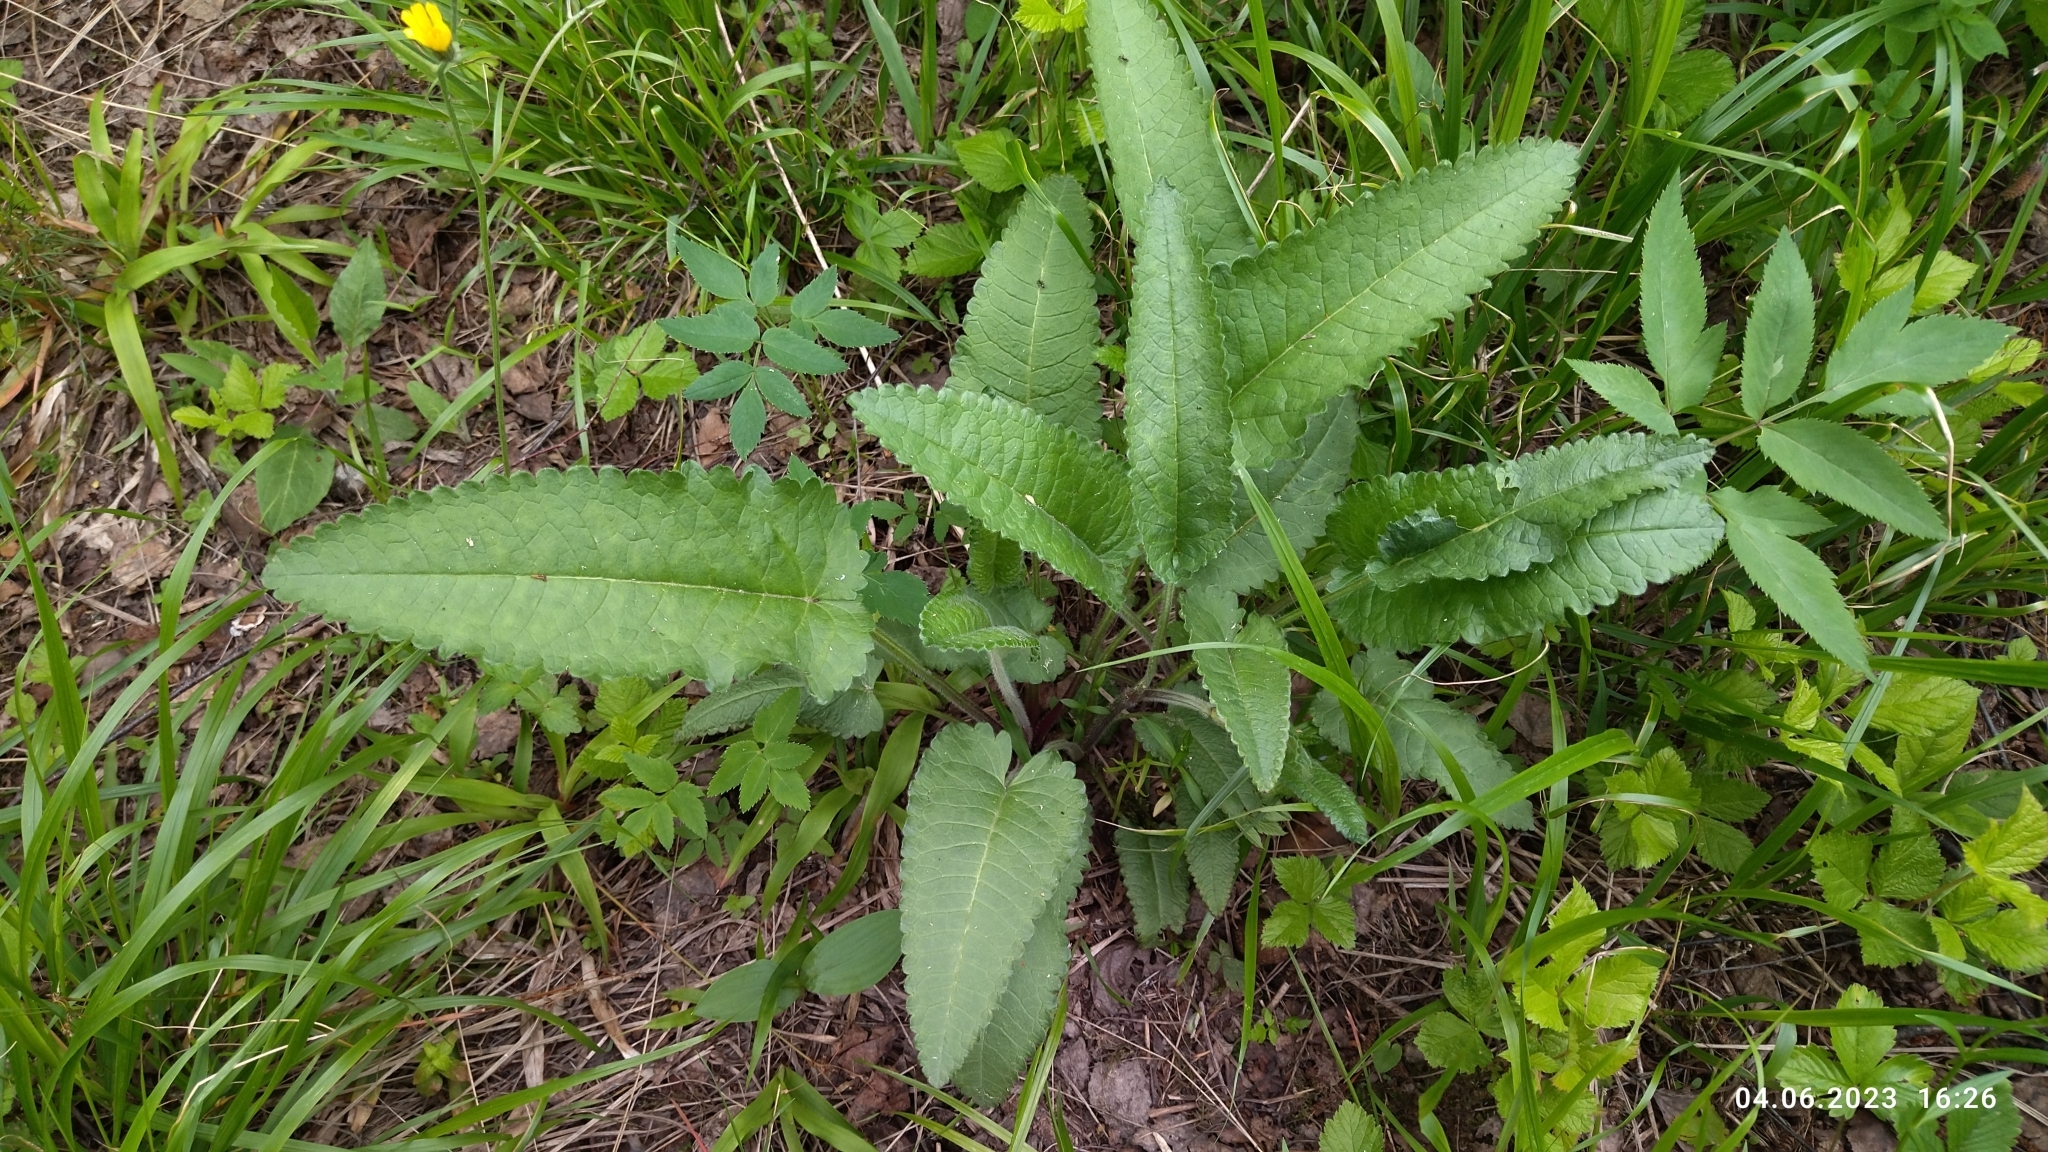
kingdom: Plantae
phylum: Tracheophyta
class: Magnoliopsida
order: Lamiales
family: Lamiaceae
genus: Betonica
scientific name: Betonica officinalis
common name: Bishop's-wort
